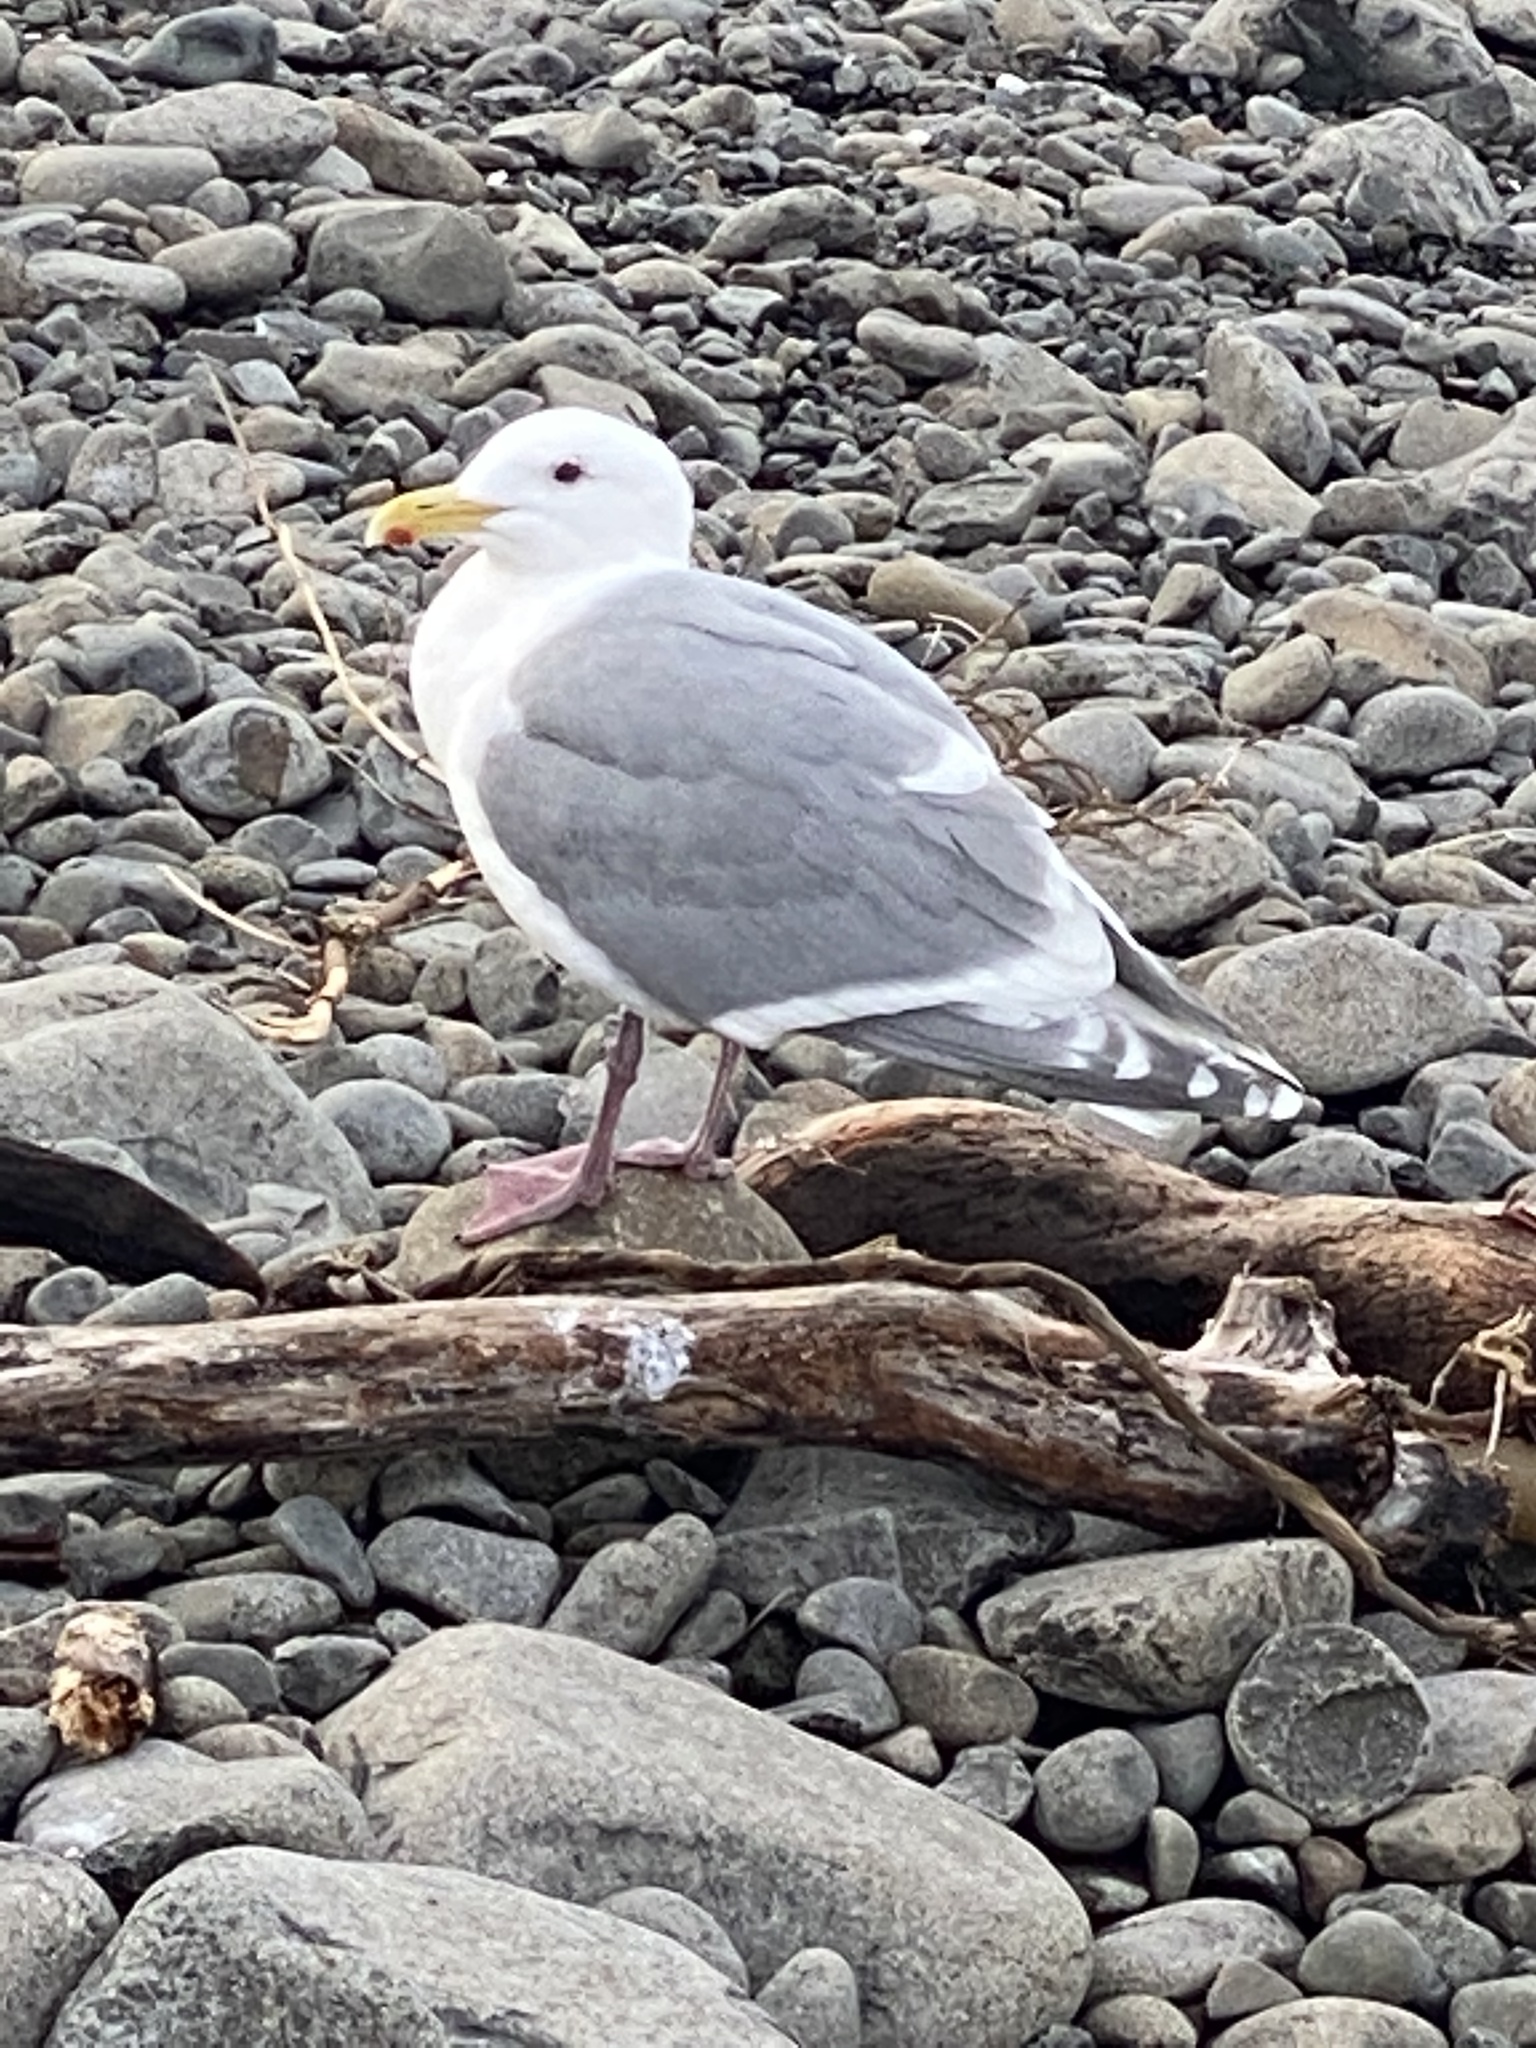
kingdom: Animalia
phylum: Chordata
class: Aves
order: Charadriiformes
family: Laridae
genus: Larus
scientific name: Larus
